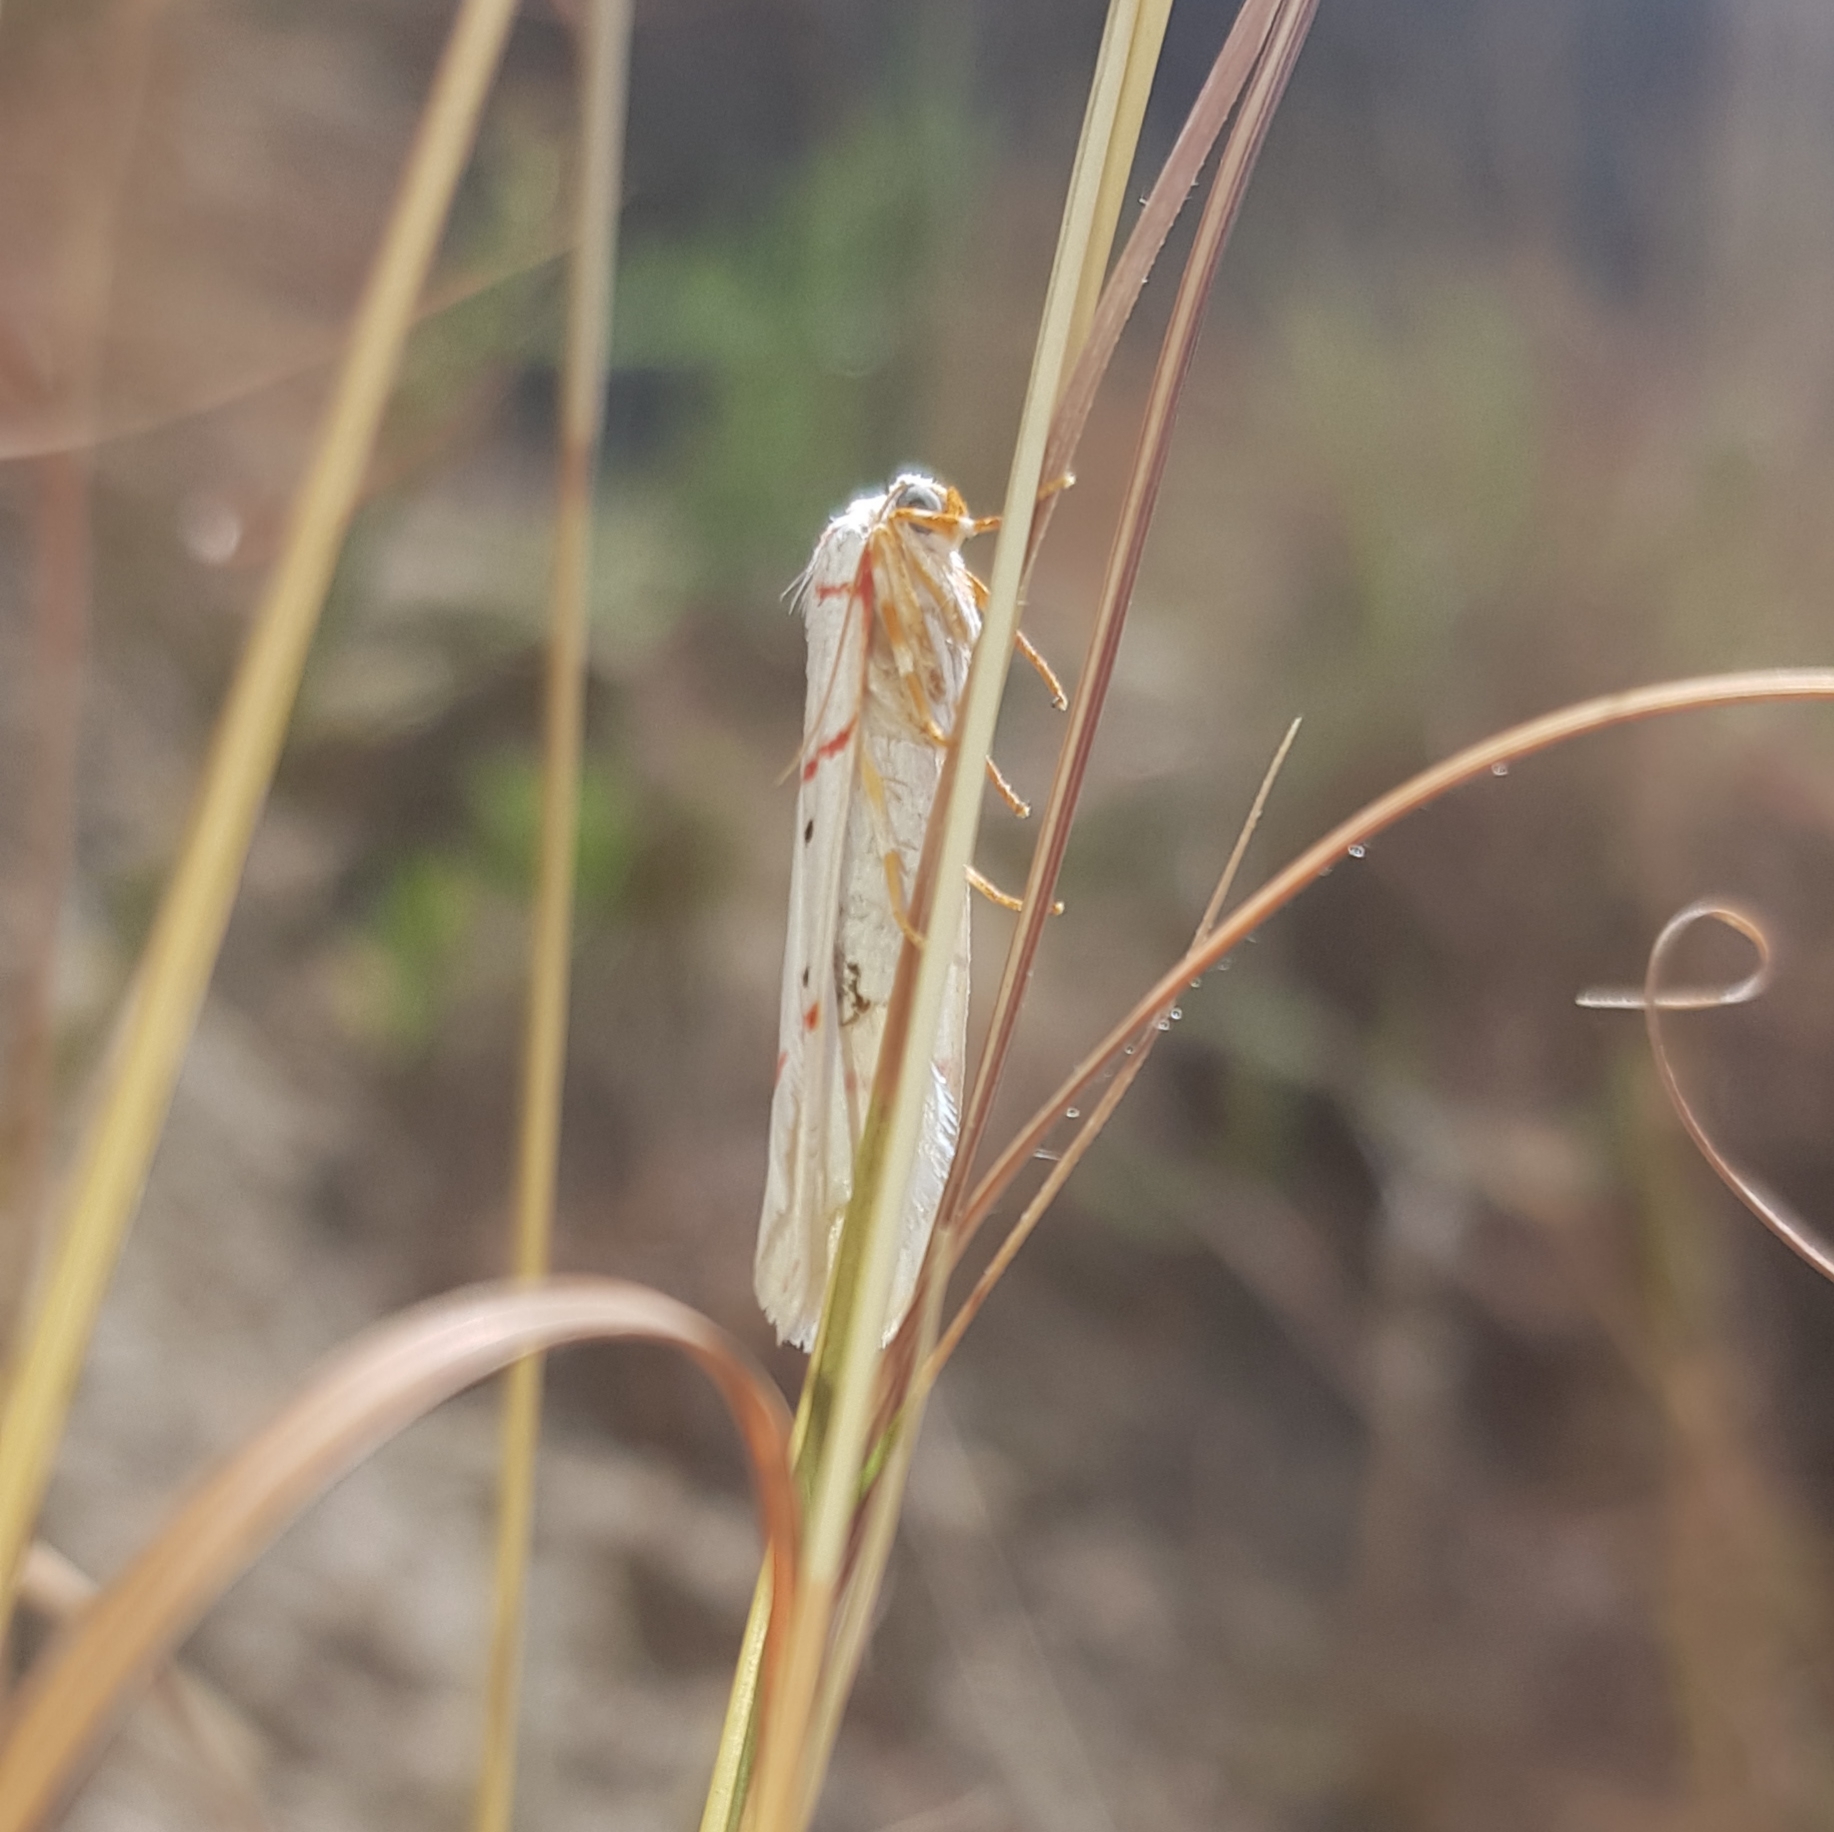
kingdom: Animalia
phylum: Arthropoda
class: Insecta
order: Lepidoptera
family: Erebidae
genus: Cyana
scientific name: Cyana pretoriae
